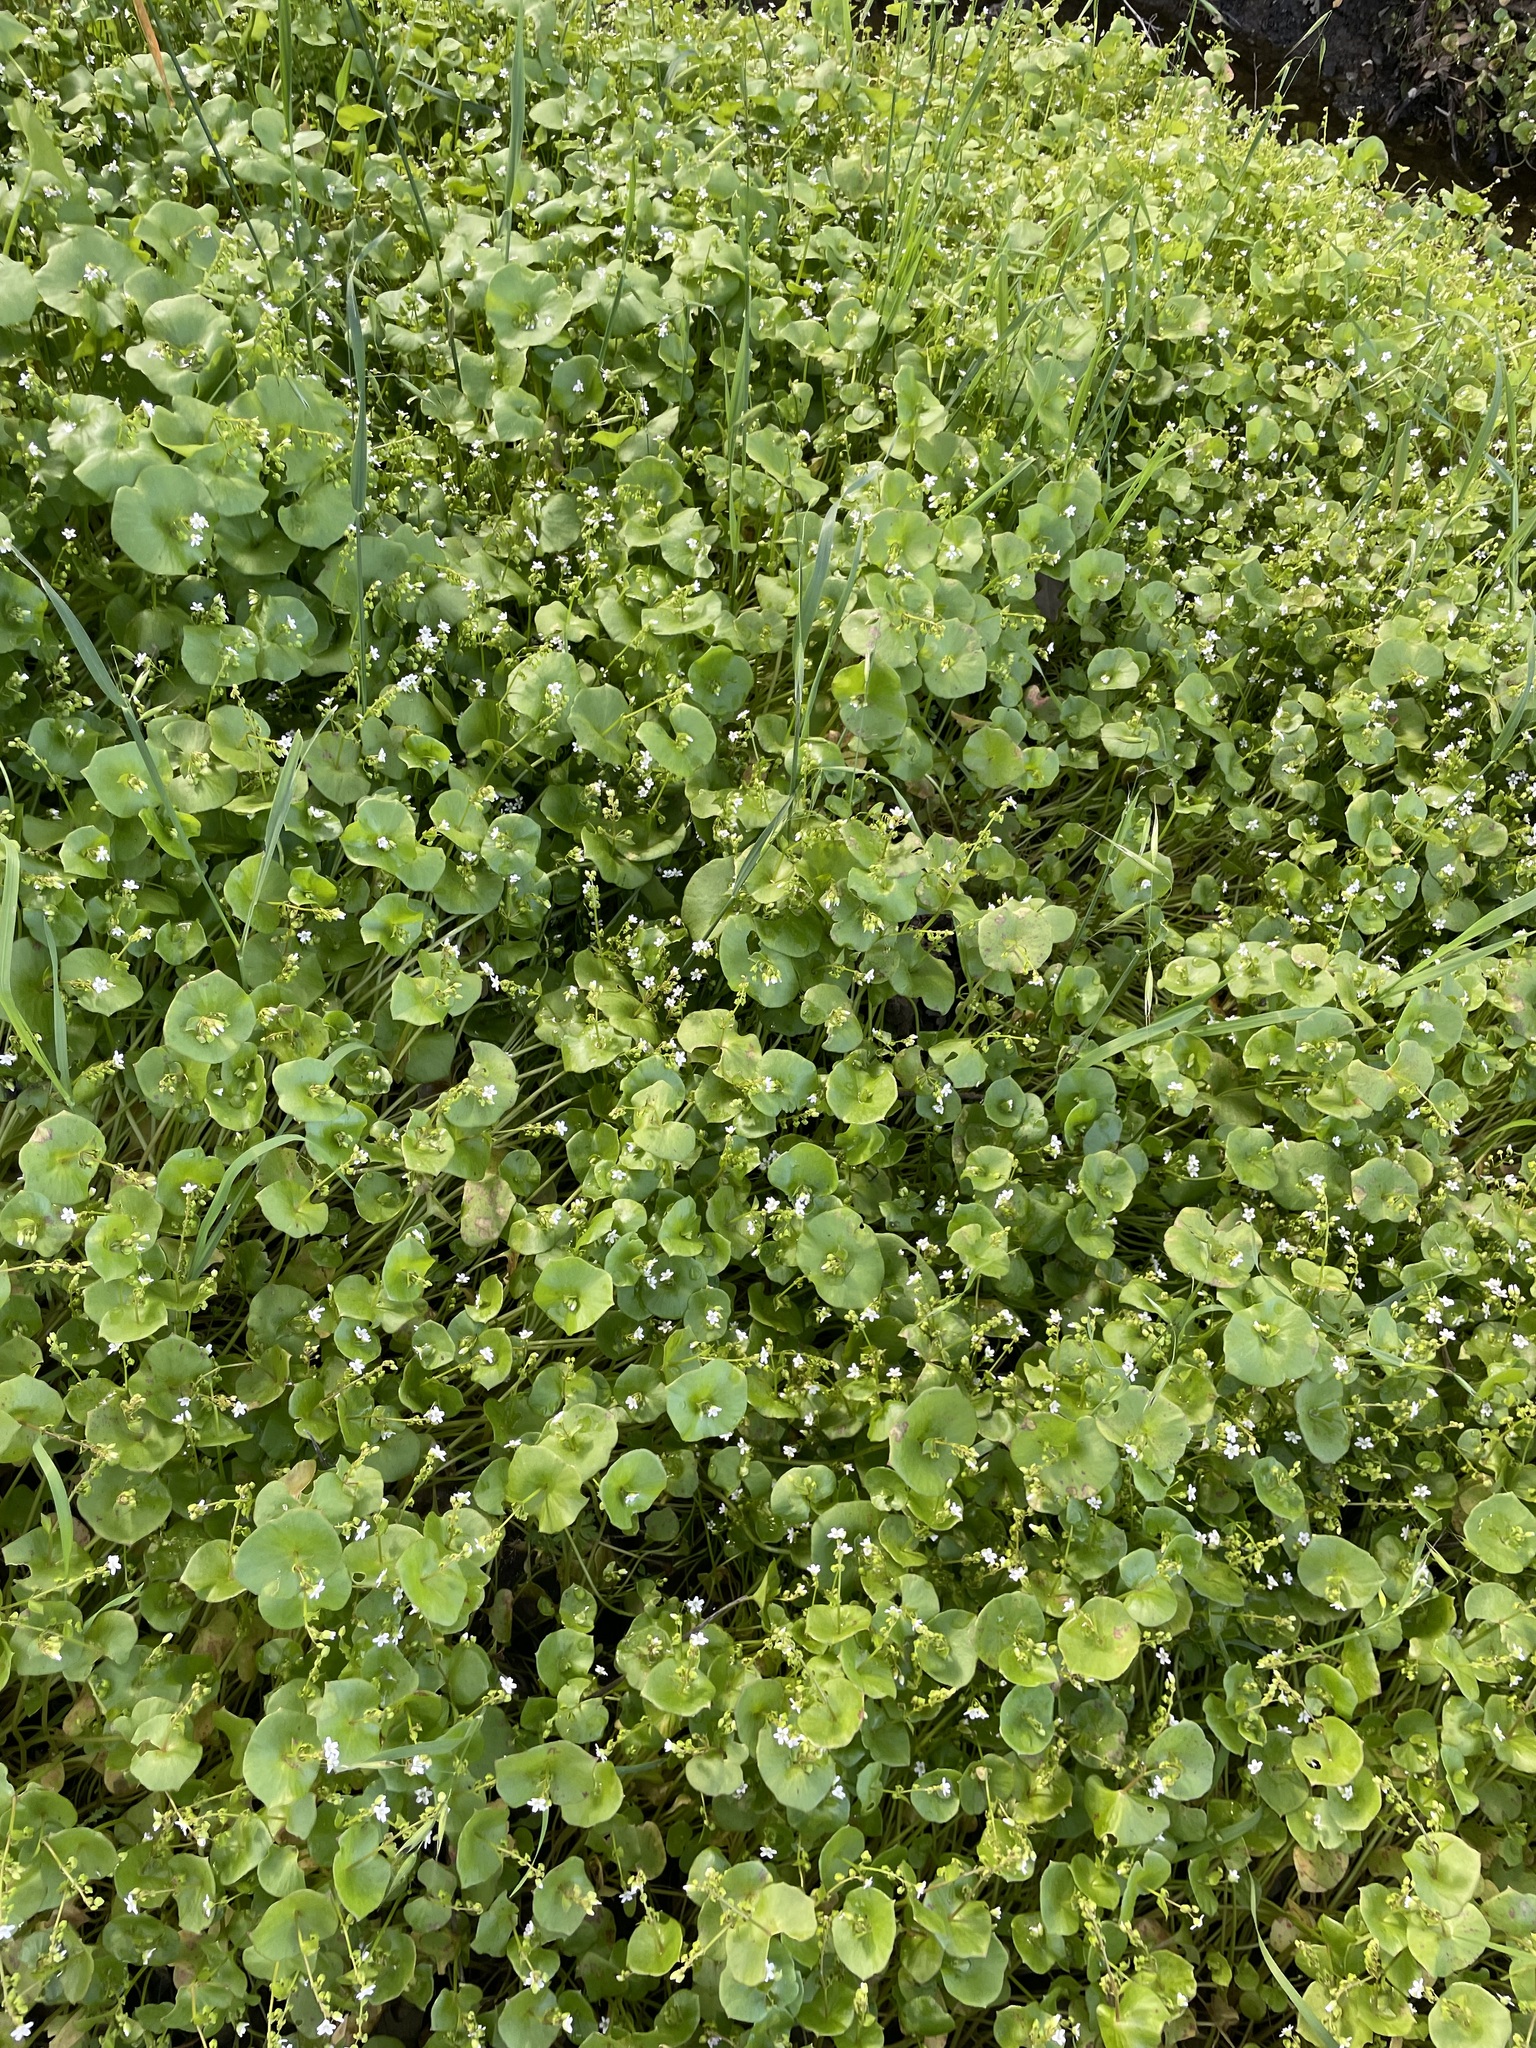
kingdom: Plantae
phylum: Tracheophyta
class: Magnoliopsida
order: Caryophyllales
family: Montiaceae
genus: Claytonia
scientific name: Claytonia perfoliata
